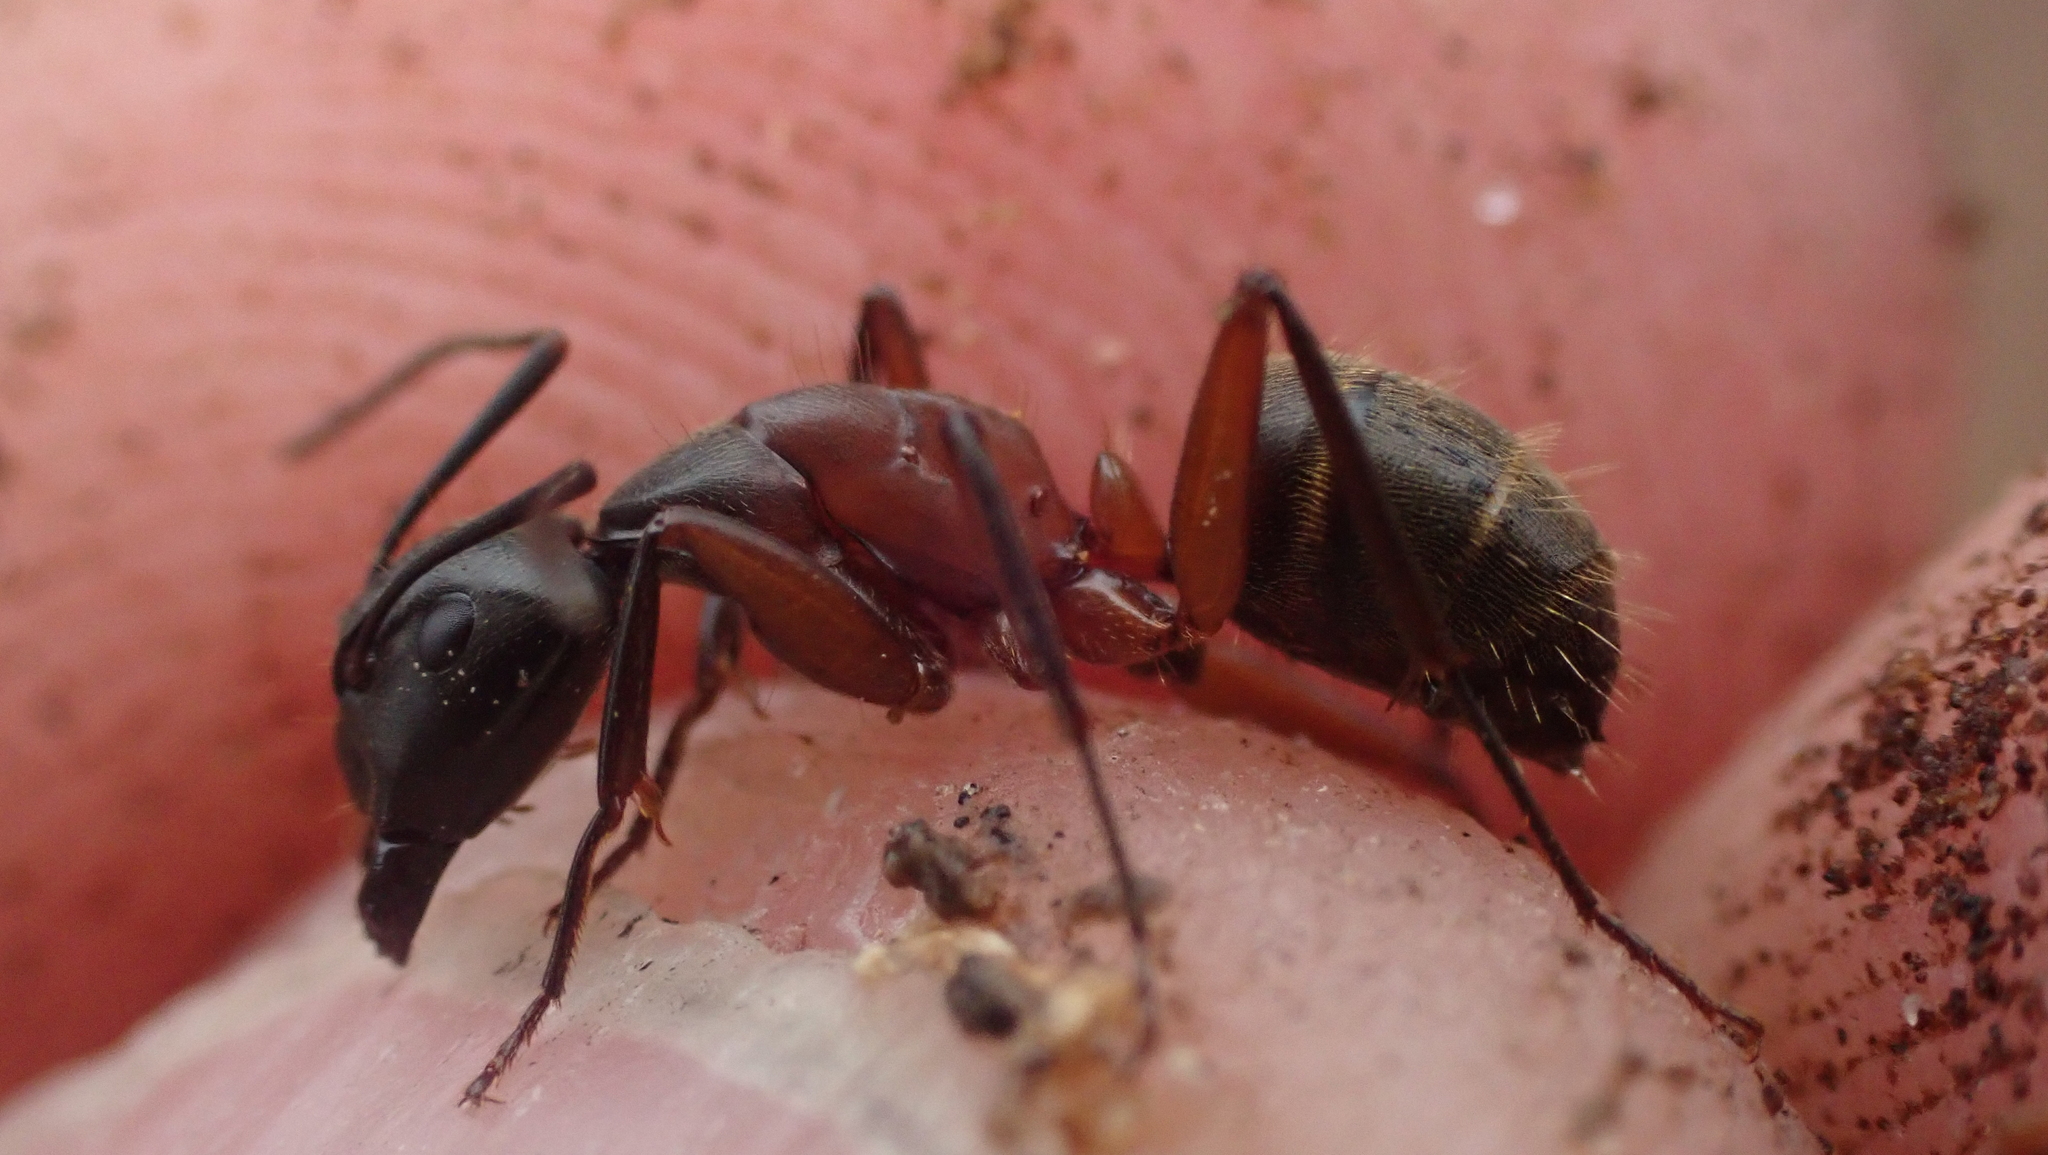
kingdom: Animalia
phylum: Arthropoda
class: Insecta
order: Hymenoptera
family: Formicidae
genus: Camponotus
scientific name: Camponotus chromaiodes
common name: Red carpenter ant
